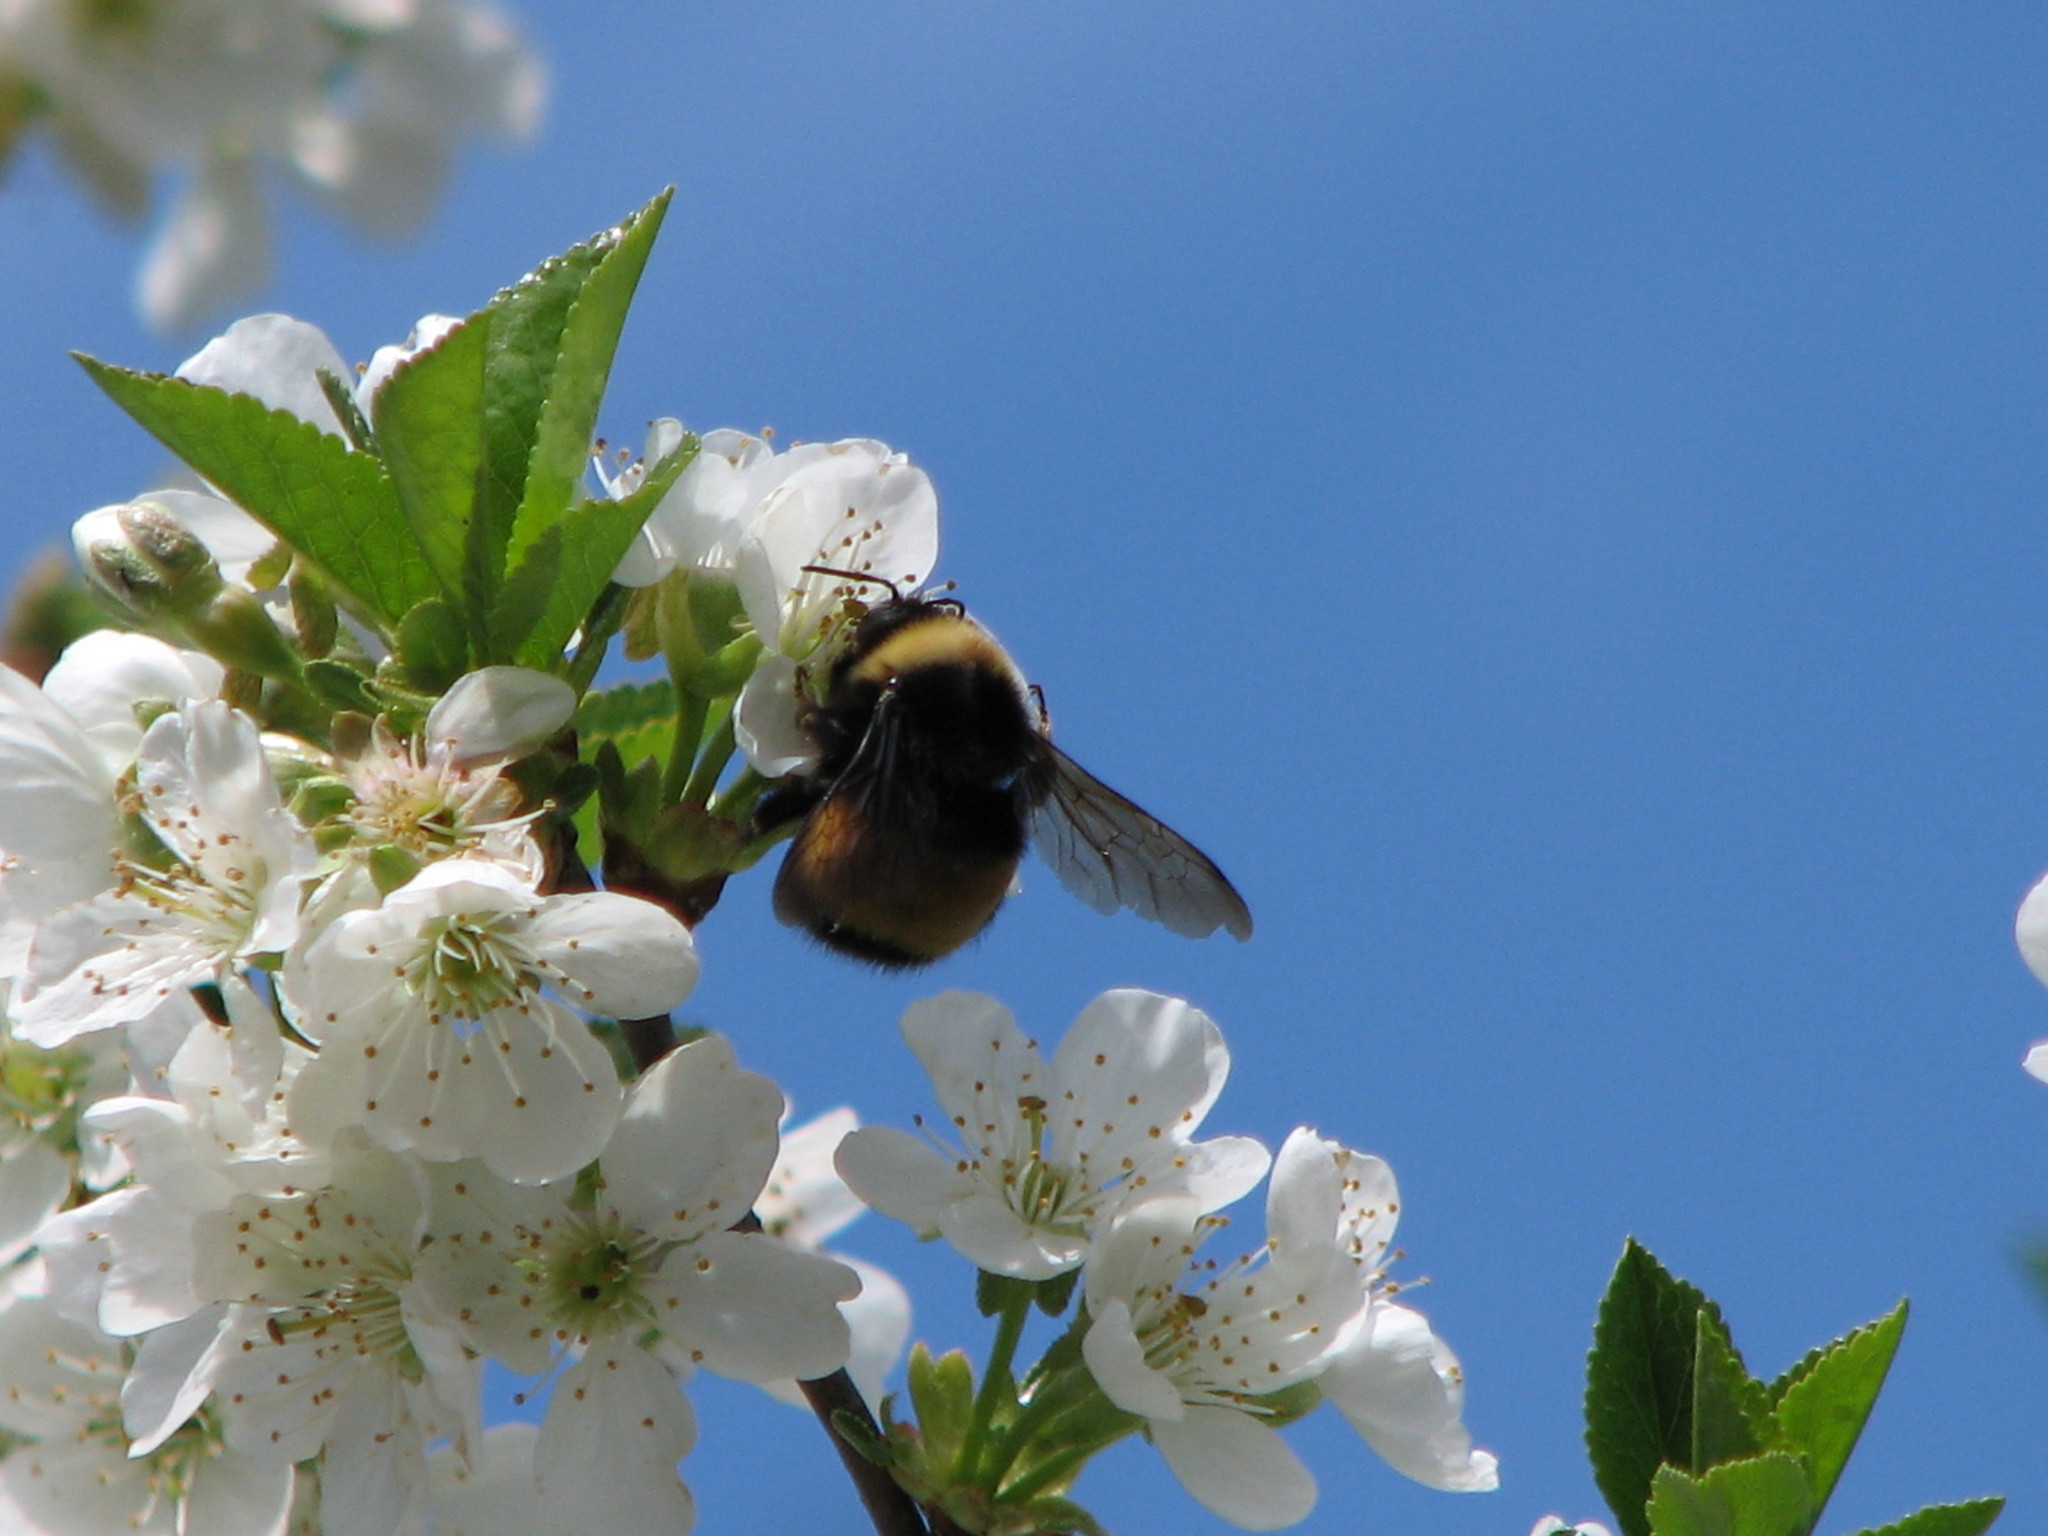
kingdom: Animalia
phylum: Arthropoda
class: Insecta
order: Hymenoptera
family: Apidae
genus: Bombus
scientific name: Bombus terricola
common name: Yellow-banded bumble bee
